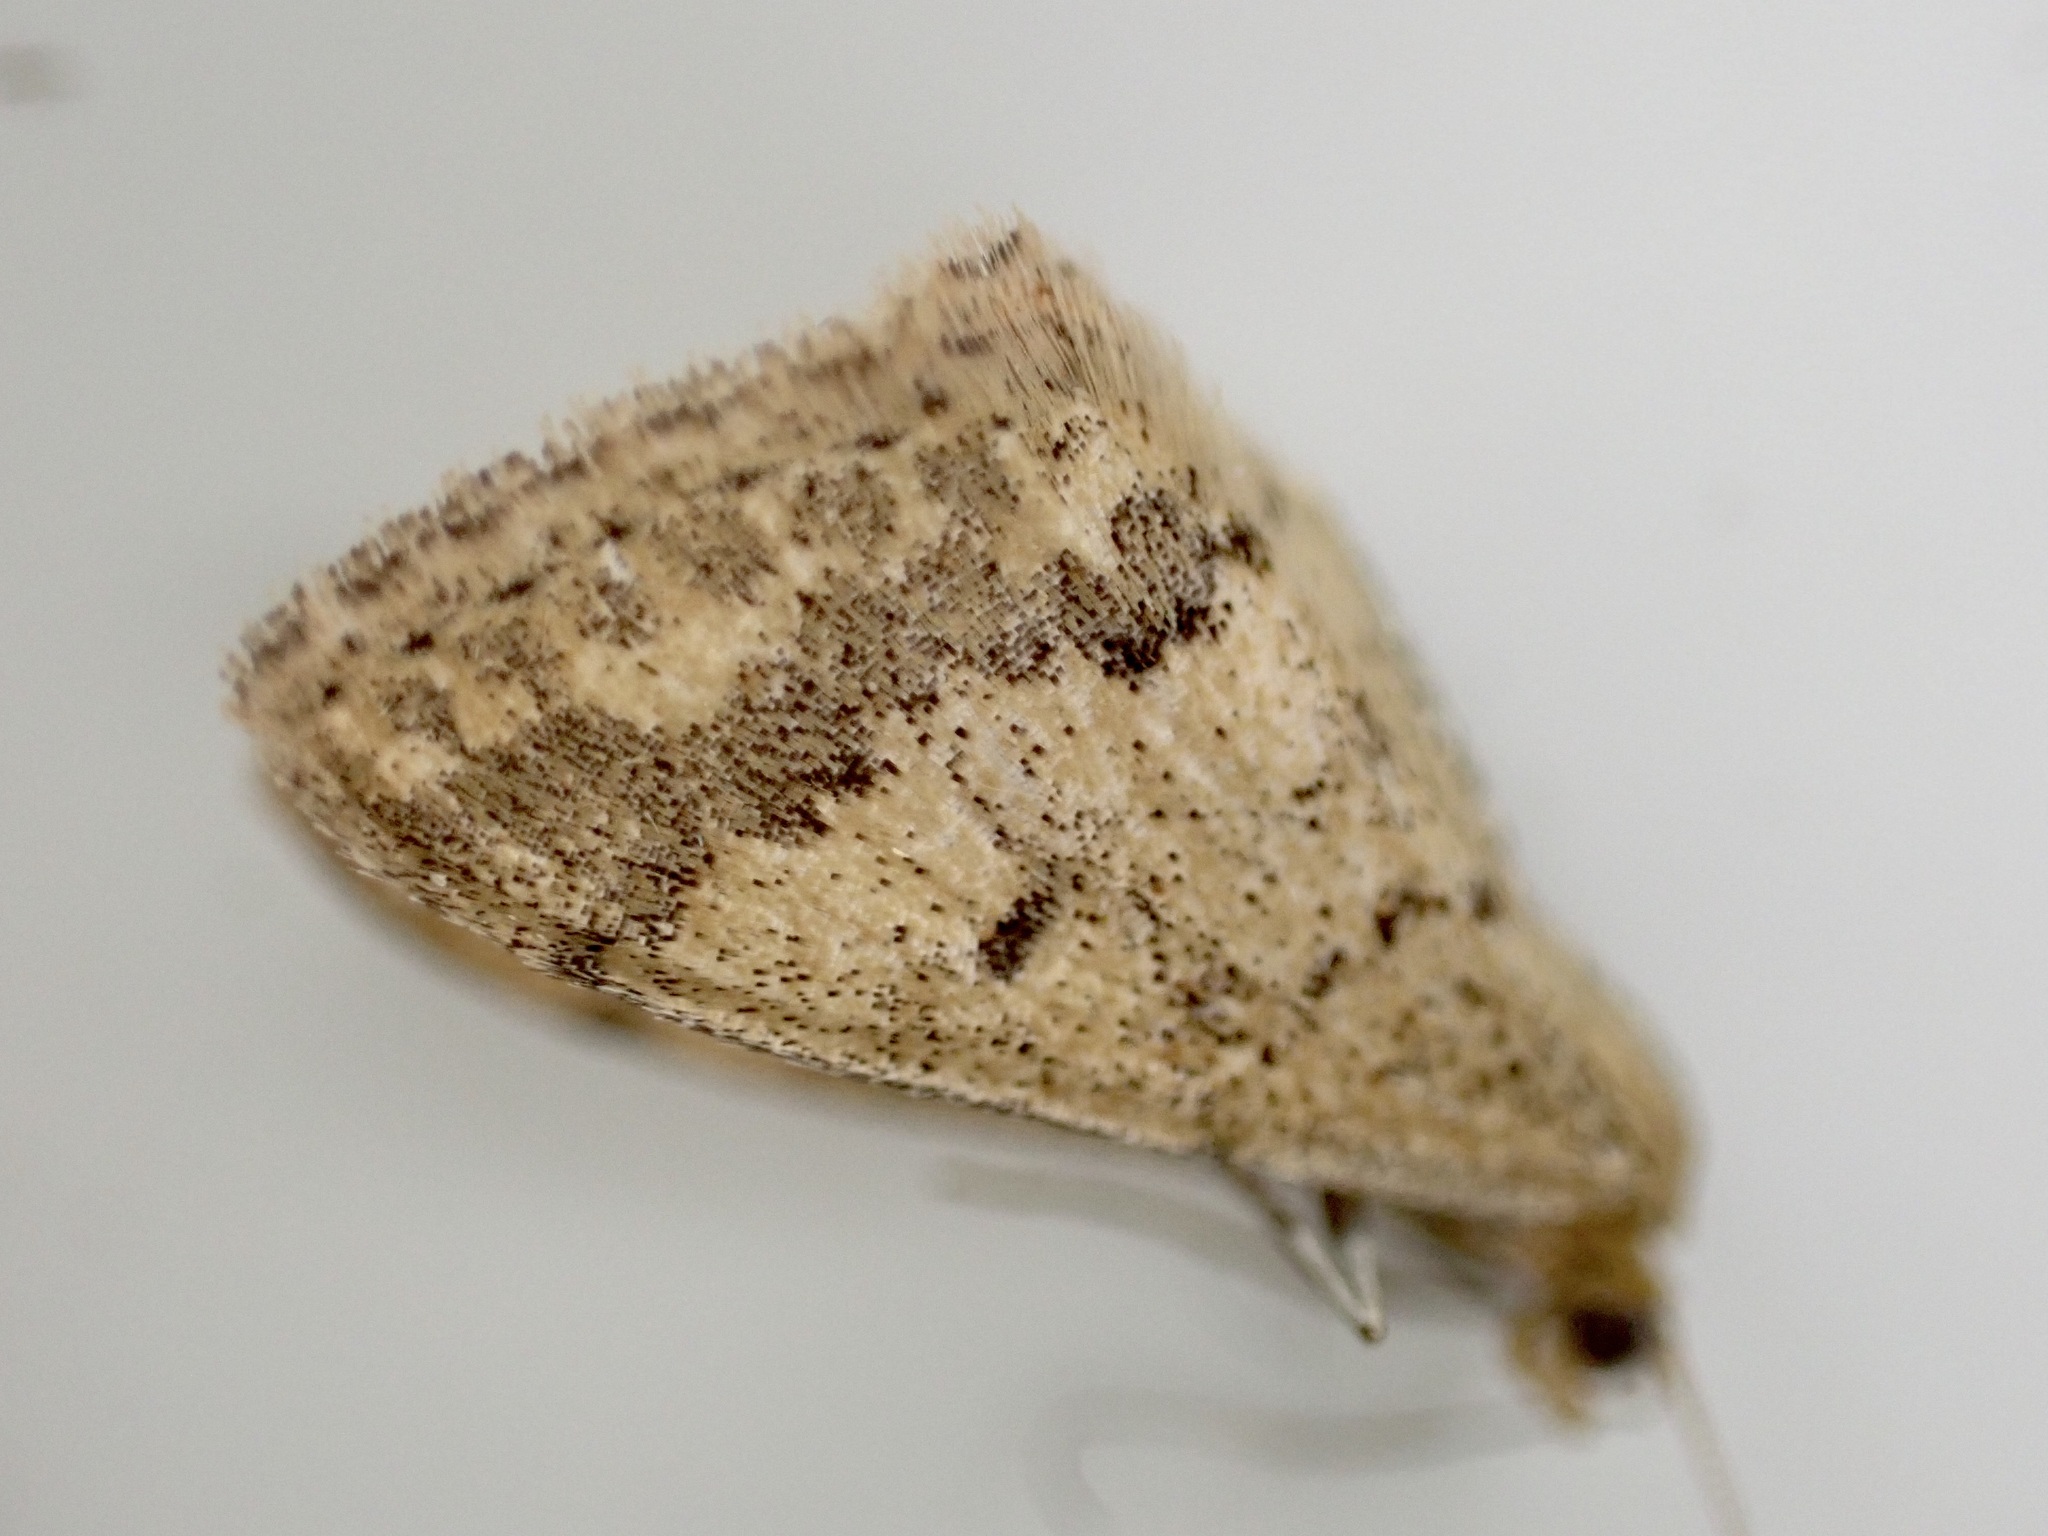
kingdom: Animalia
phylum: Arthropoda
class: Insecta
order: Lepidoptera
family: Geometridae
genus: Scopula
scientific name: Scopula rubraria
